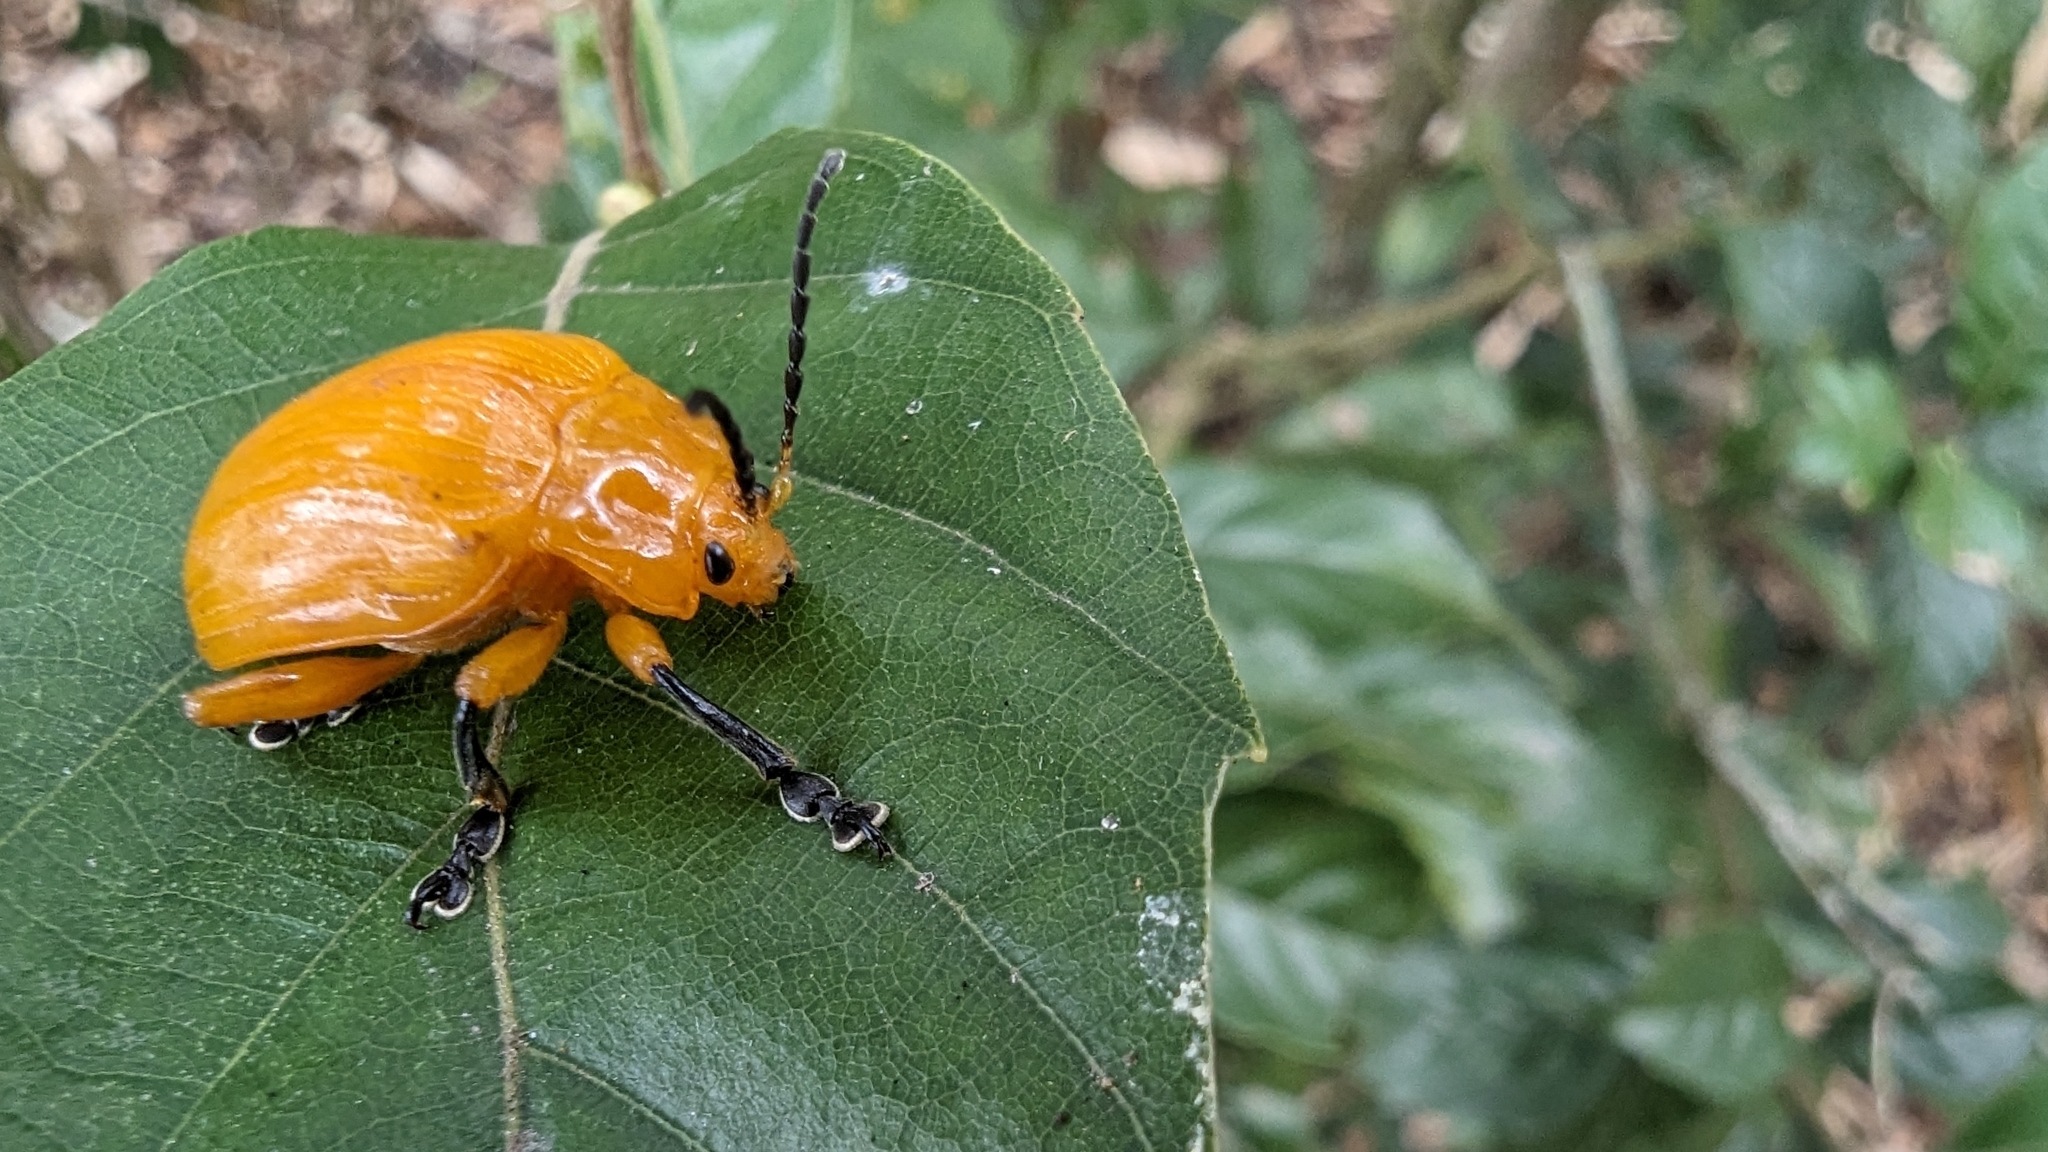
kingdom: Animalia
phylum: Arthropoda
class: Insecta
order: Coleoptera
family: Chrysomelidae
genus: Podontia
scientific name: Podontia lutea
